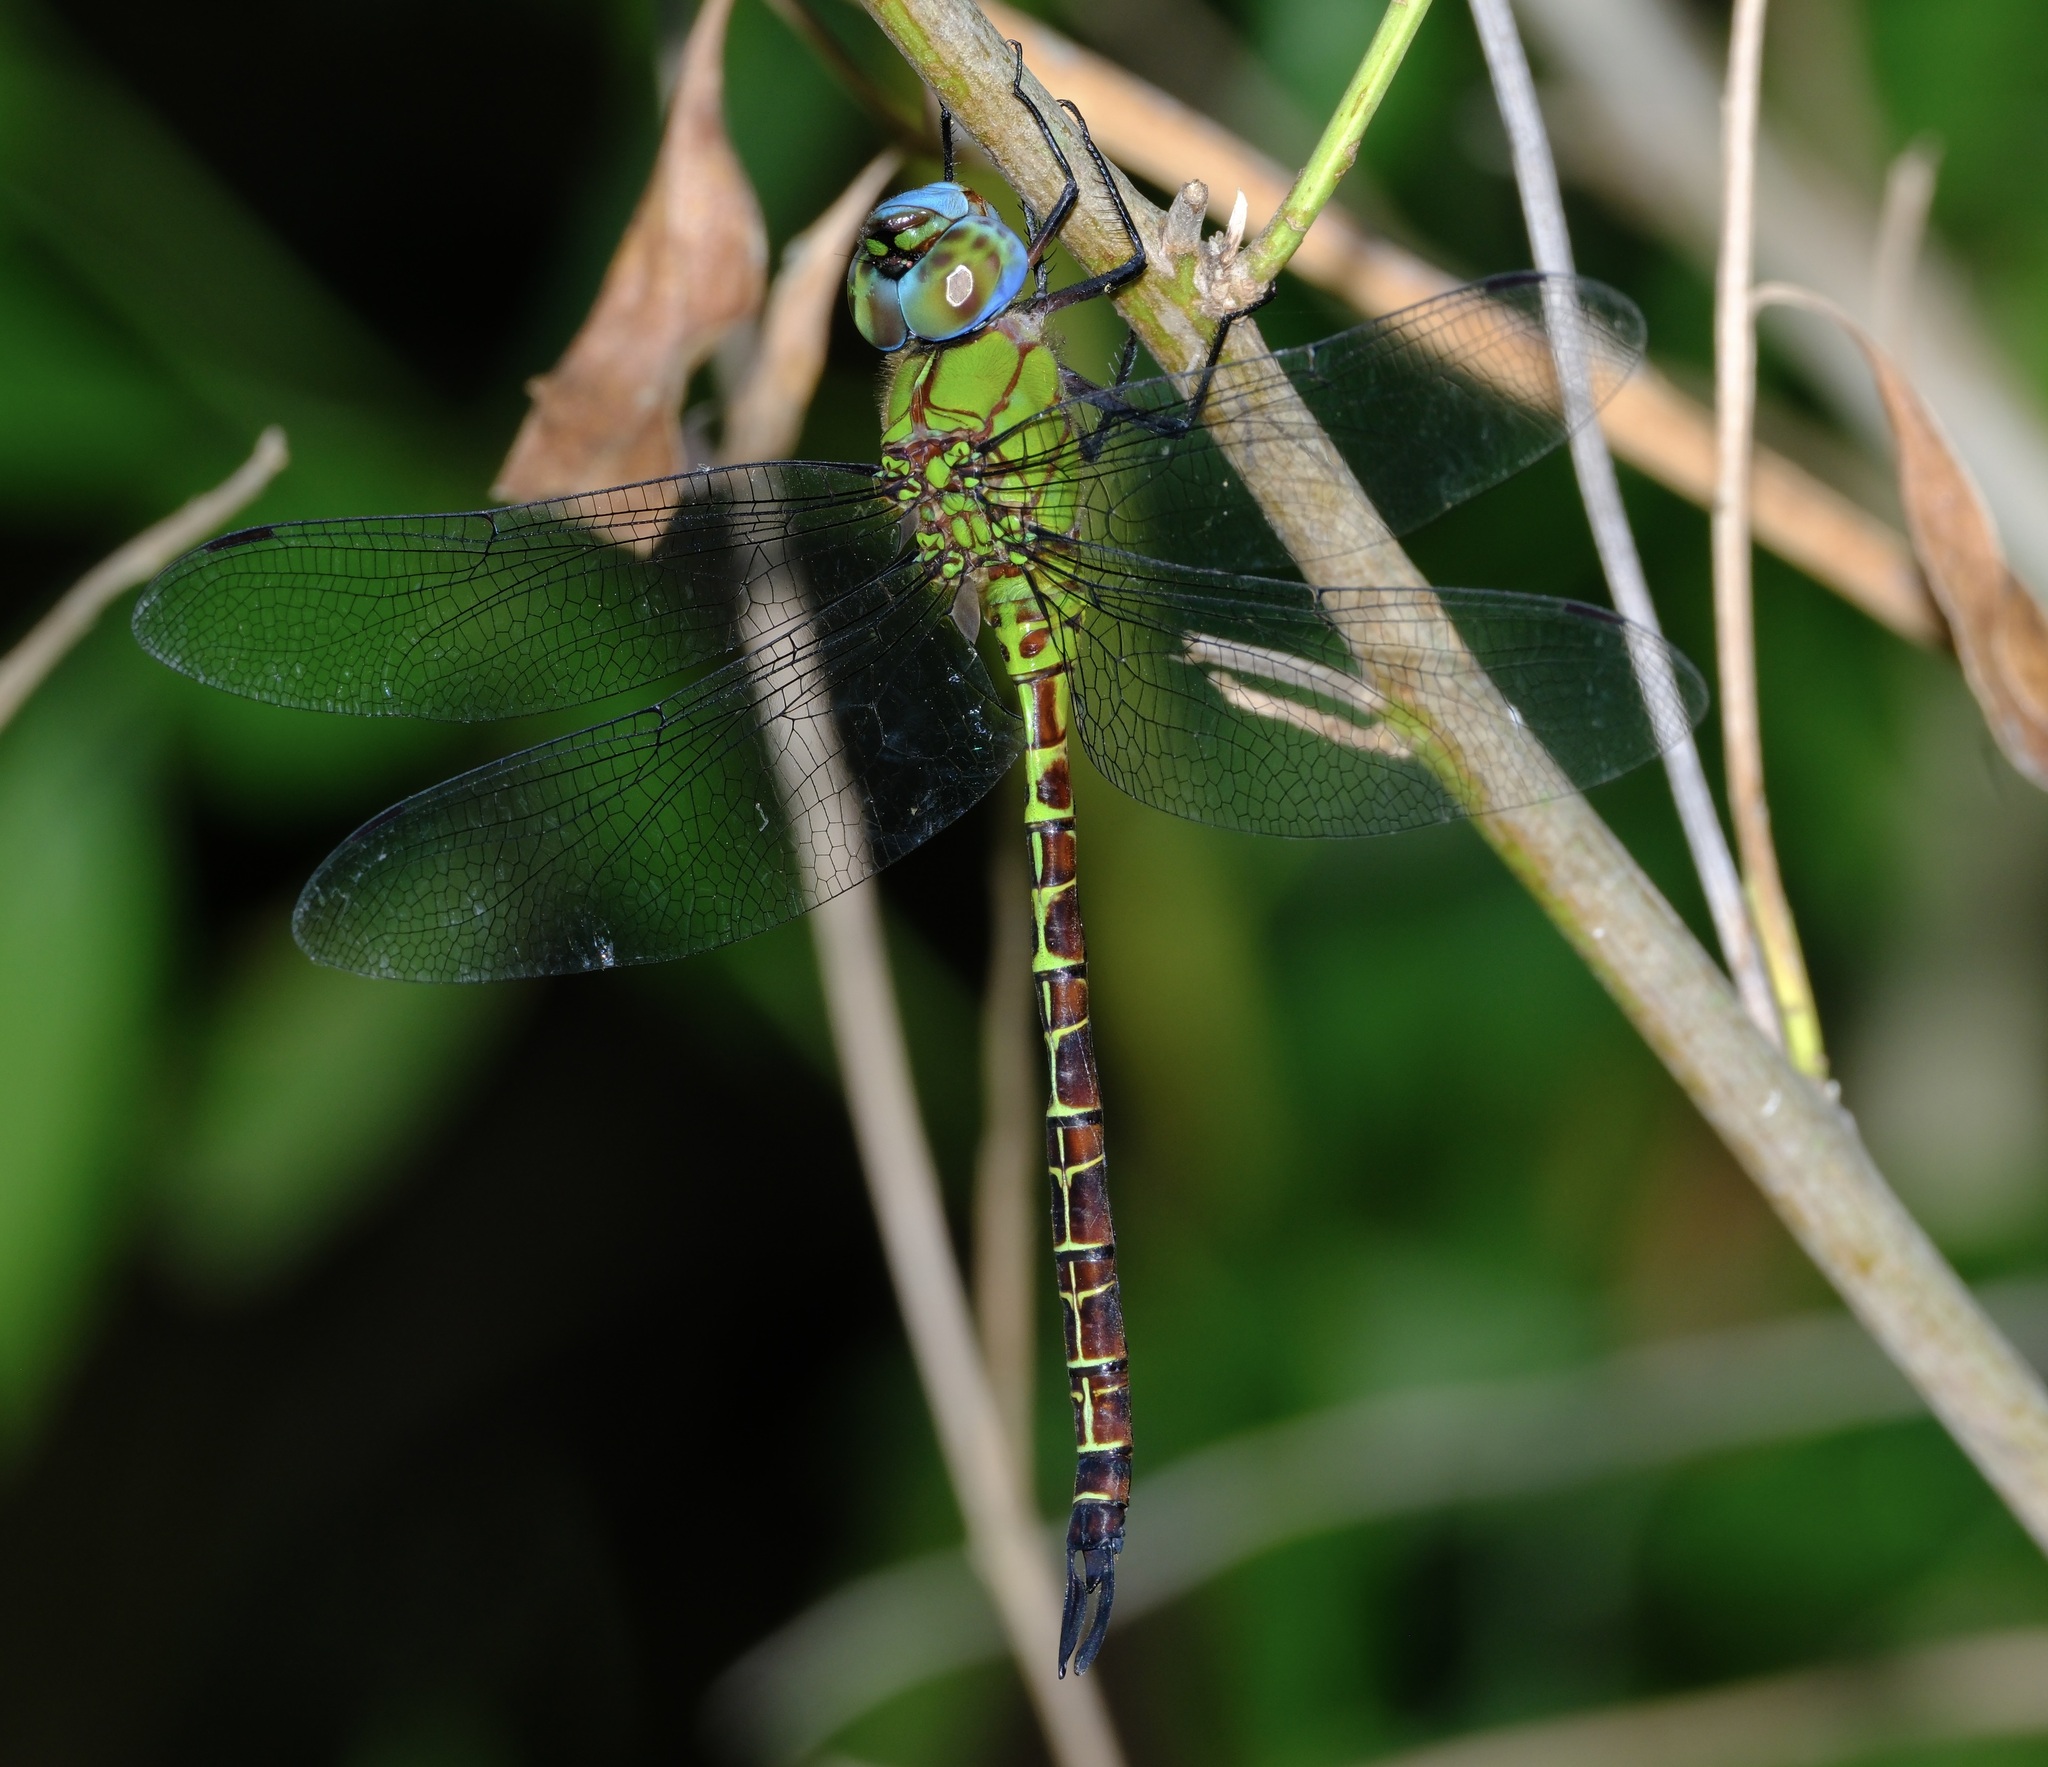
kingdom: Animalia
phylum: Arthropoda
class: Insecta
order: Odonata
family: Aeshnidae
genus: Coryphaeschna
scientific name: Coryphaeschna adnexa
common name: Blue-faced darner
